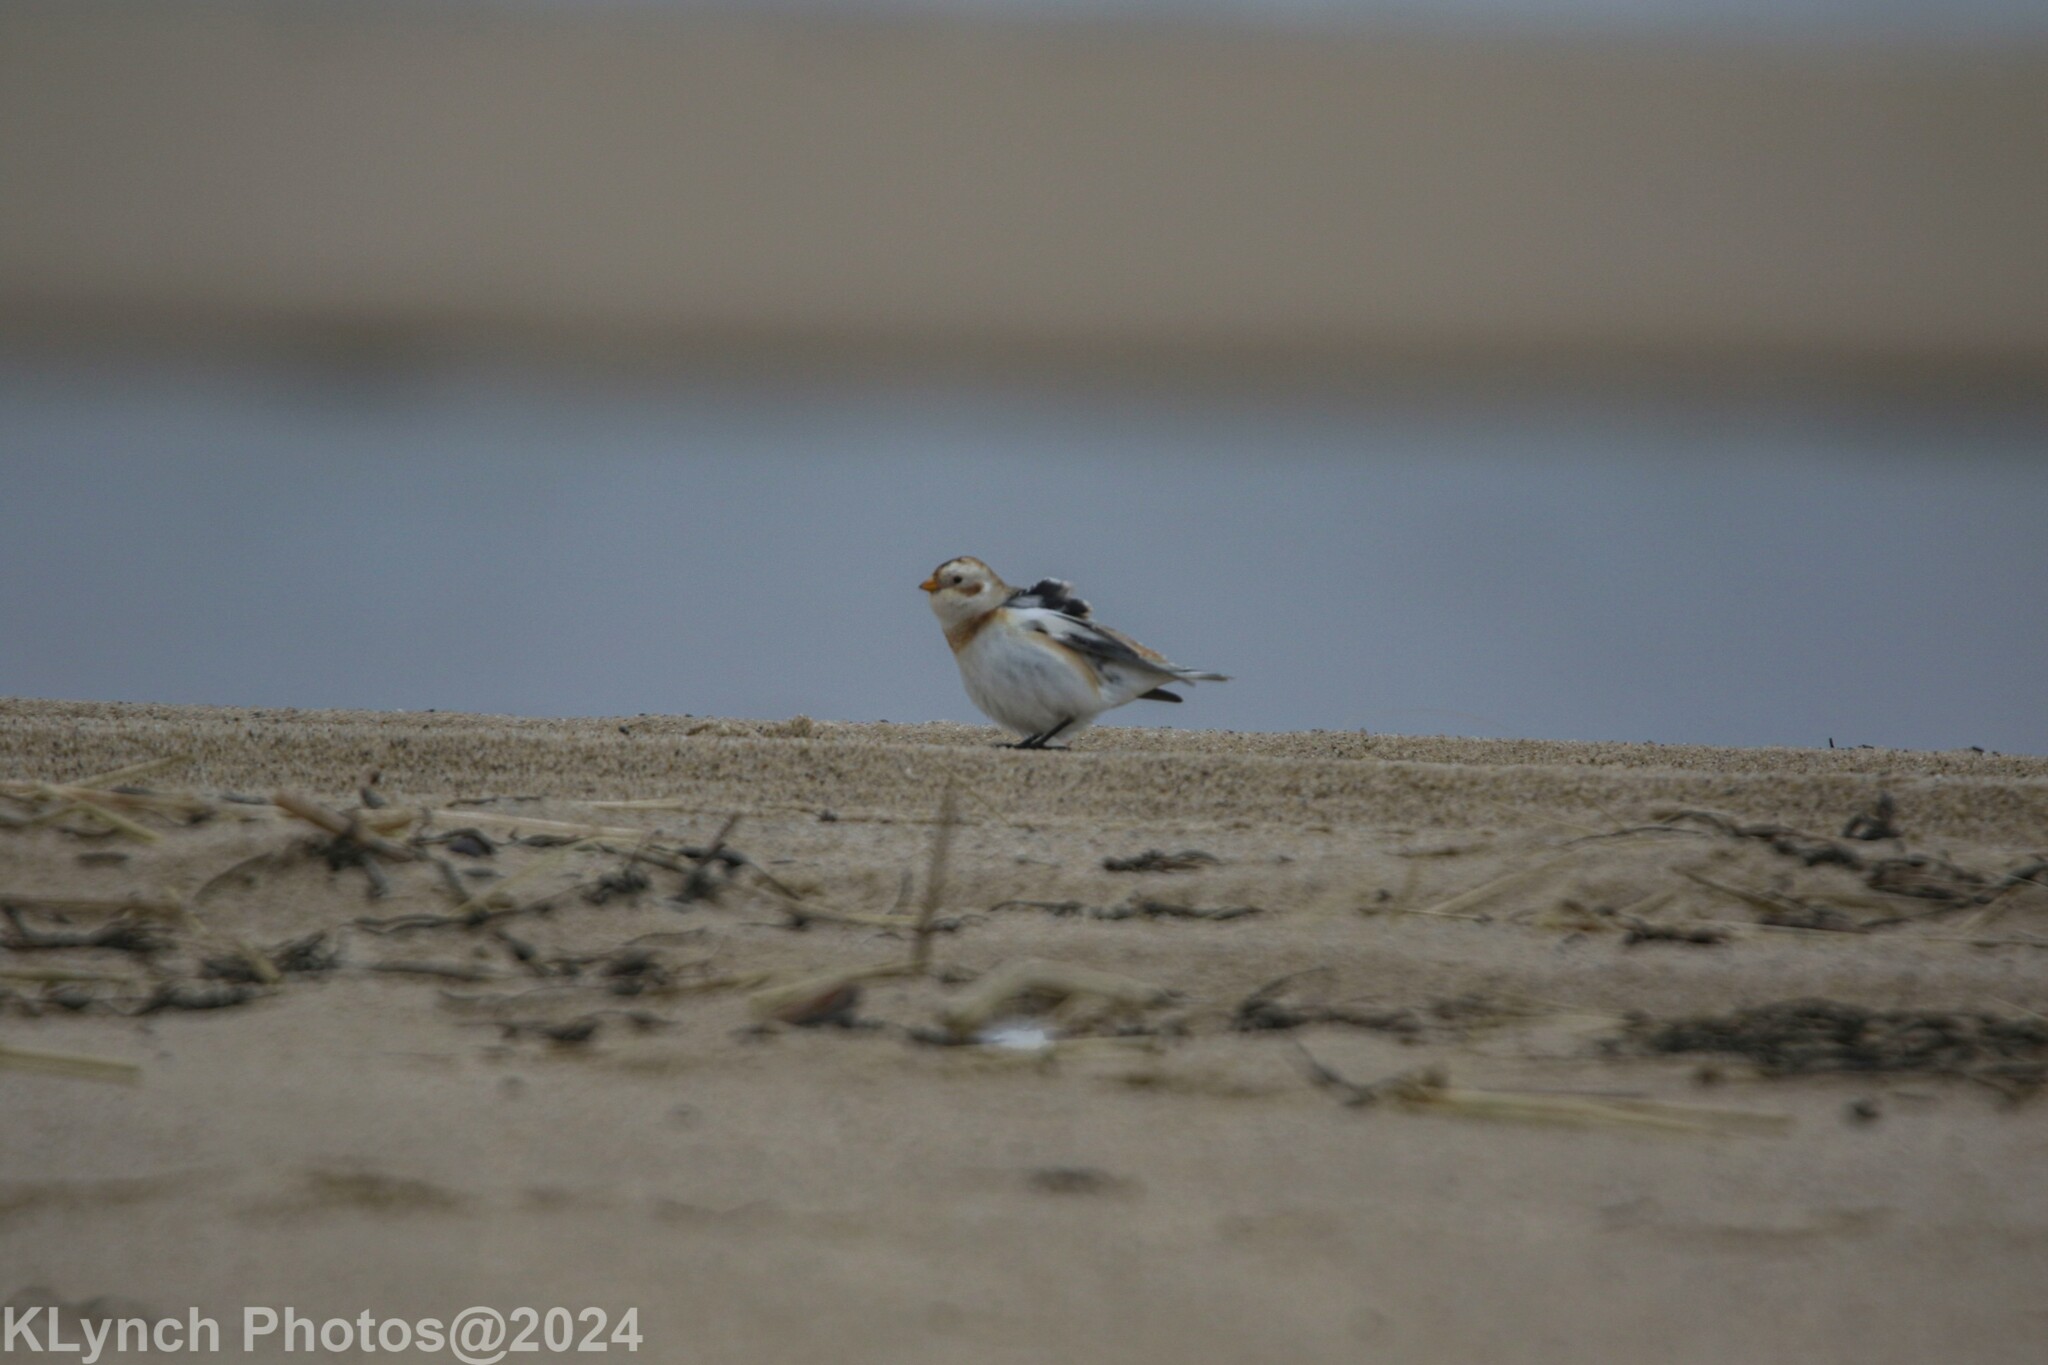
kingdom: Animalia
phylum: Chordata
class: Aves
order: Passeriformes
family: Calcariidae
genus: Plectrophenax
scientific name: Plectrophenax nivalis
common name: Snow bunting
